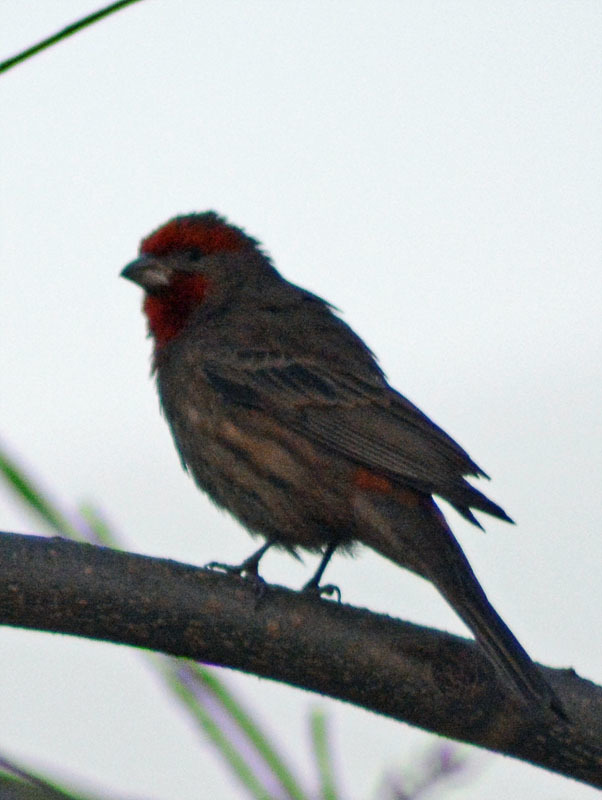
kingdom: Animalia
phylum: Chordata
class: Aves
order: Passeriformes
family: Fringillidae
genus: Haemorhous
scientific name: Haemorhous mexicanus
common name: House finch
